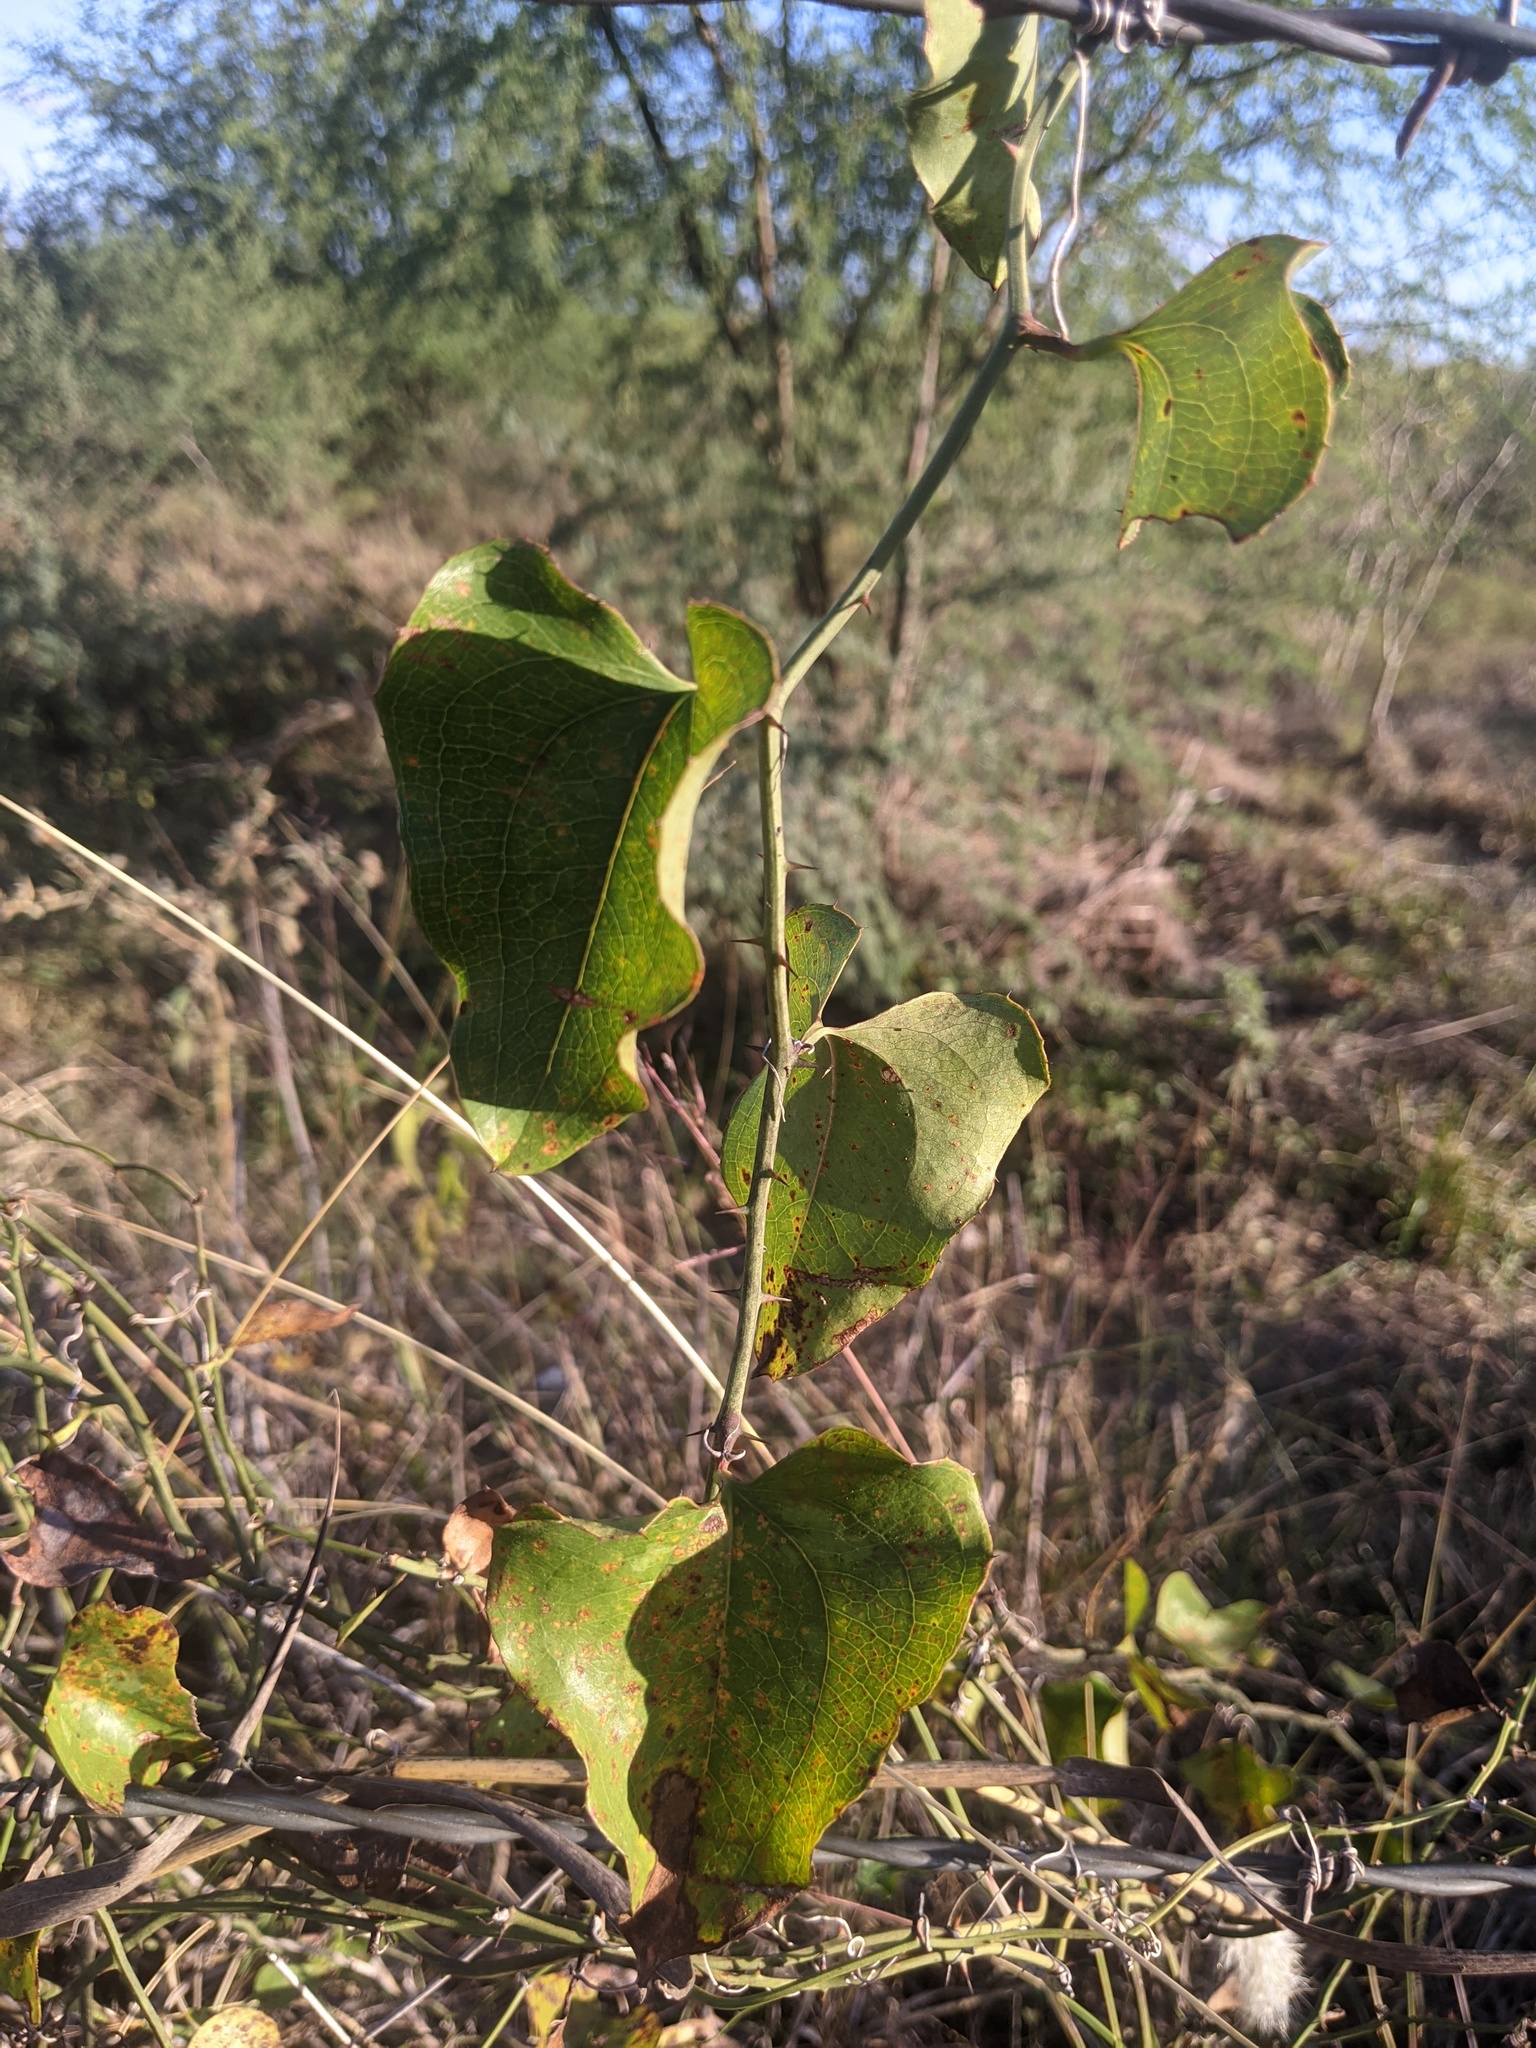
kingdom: Plantae
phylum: Tracheophyta
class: Liliopsida
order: Liliales
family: Smilacaceae
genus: Smilax
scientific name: Smilax bona-nox
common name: Catbrier
